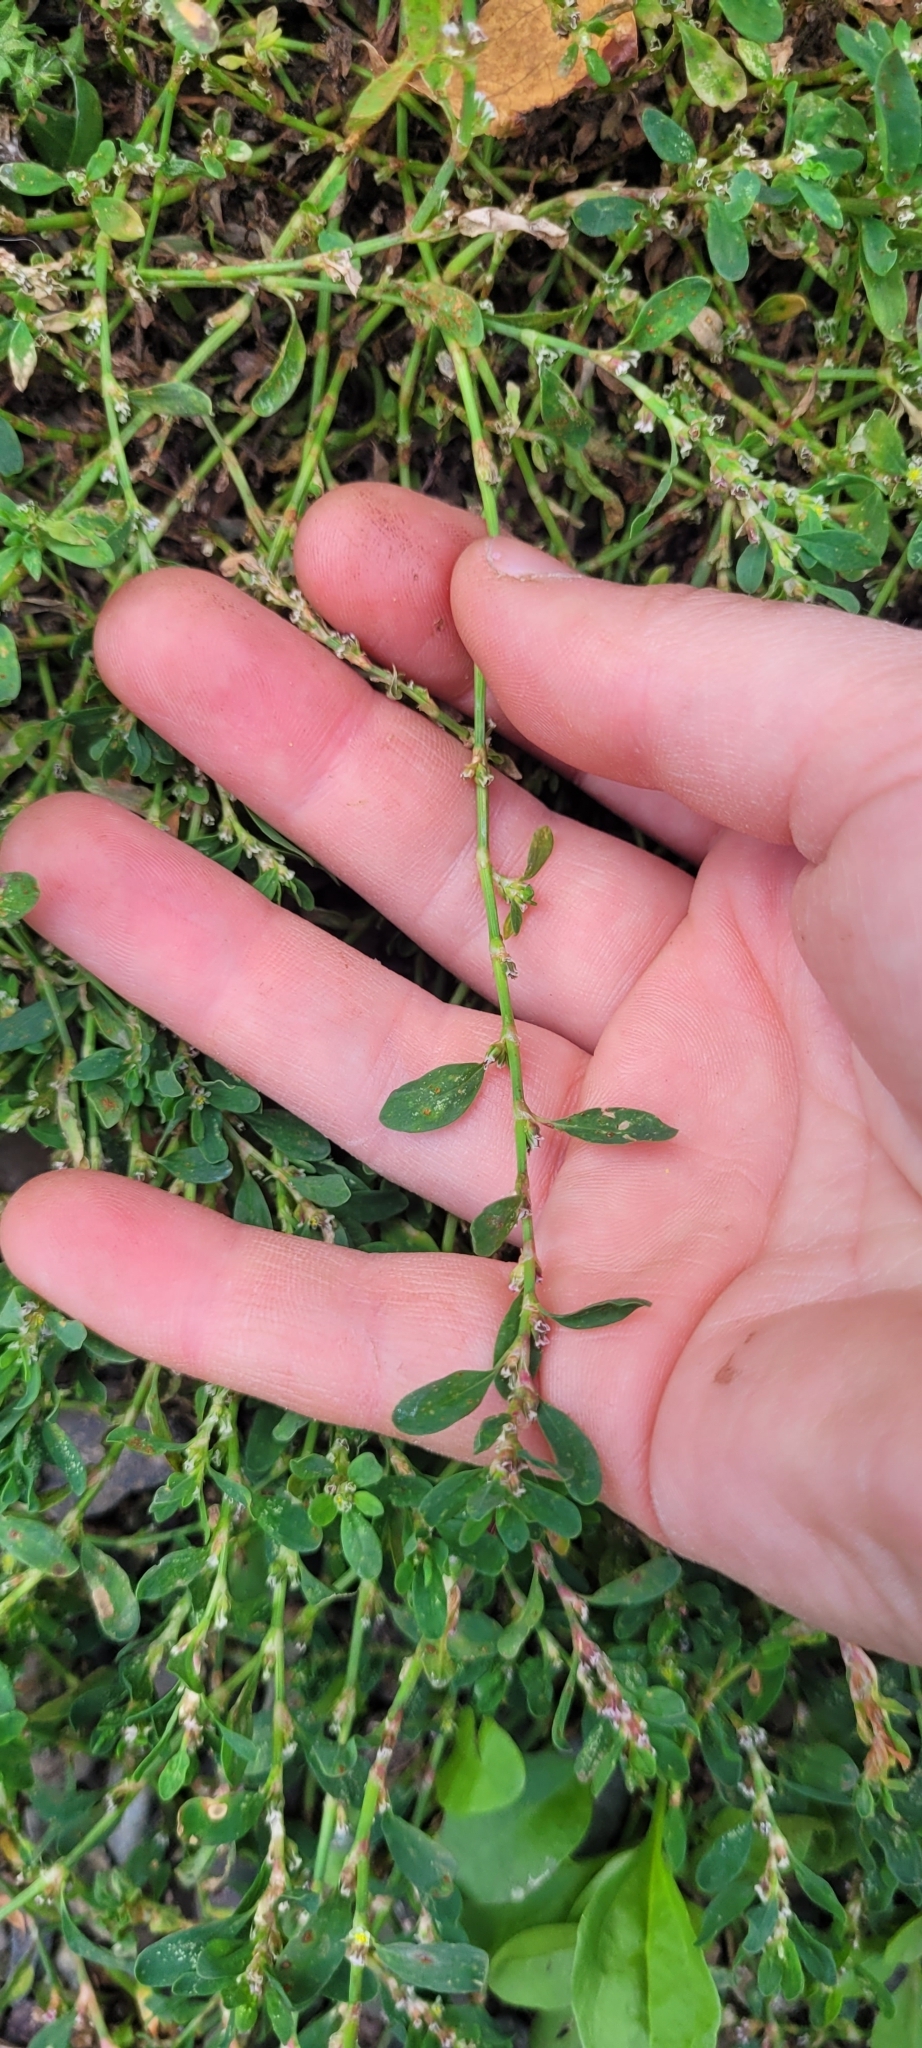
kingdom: Plantae
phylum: Tracheophyta
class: Magnoliopsida
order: Caryophyllales
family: Polygonaceae
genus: Polygonum
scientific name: Polygonum aviculare
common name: Prostrate knotweed
